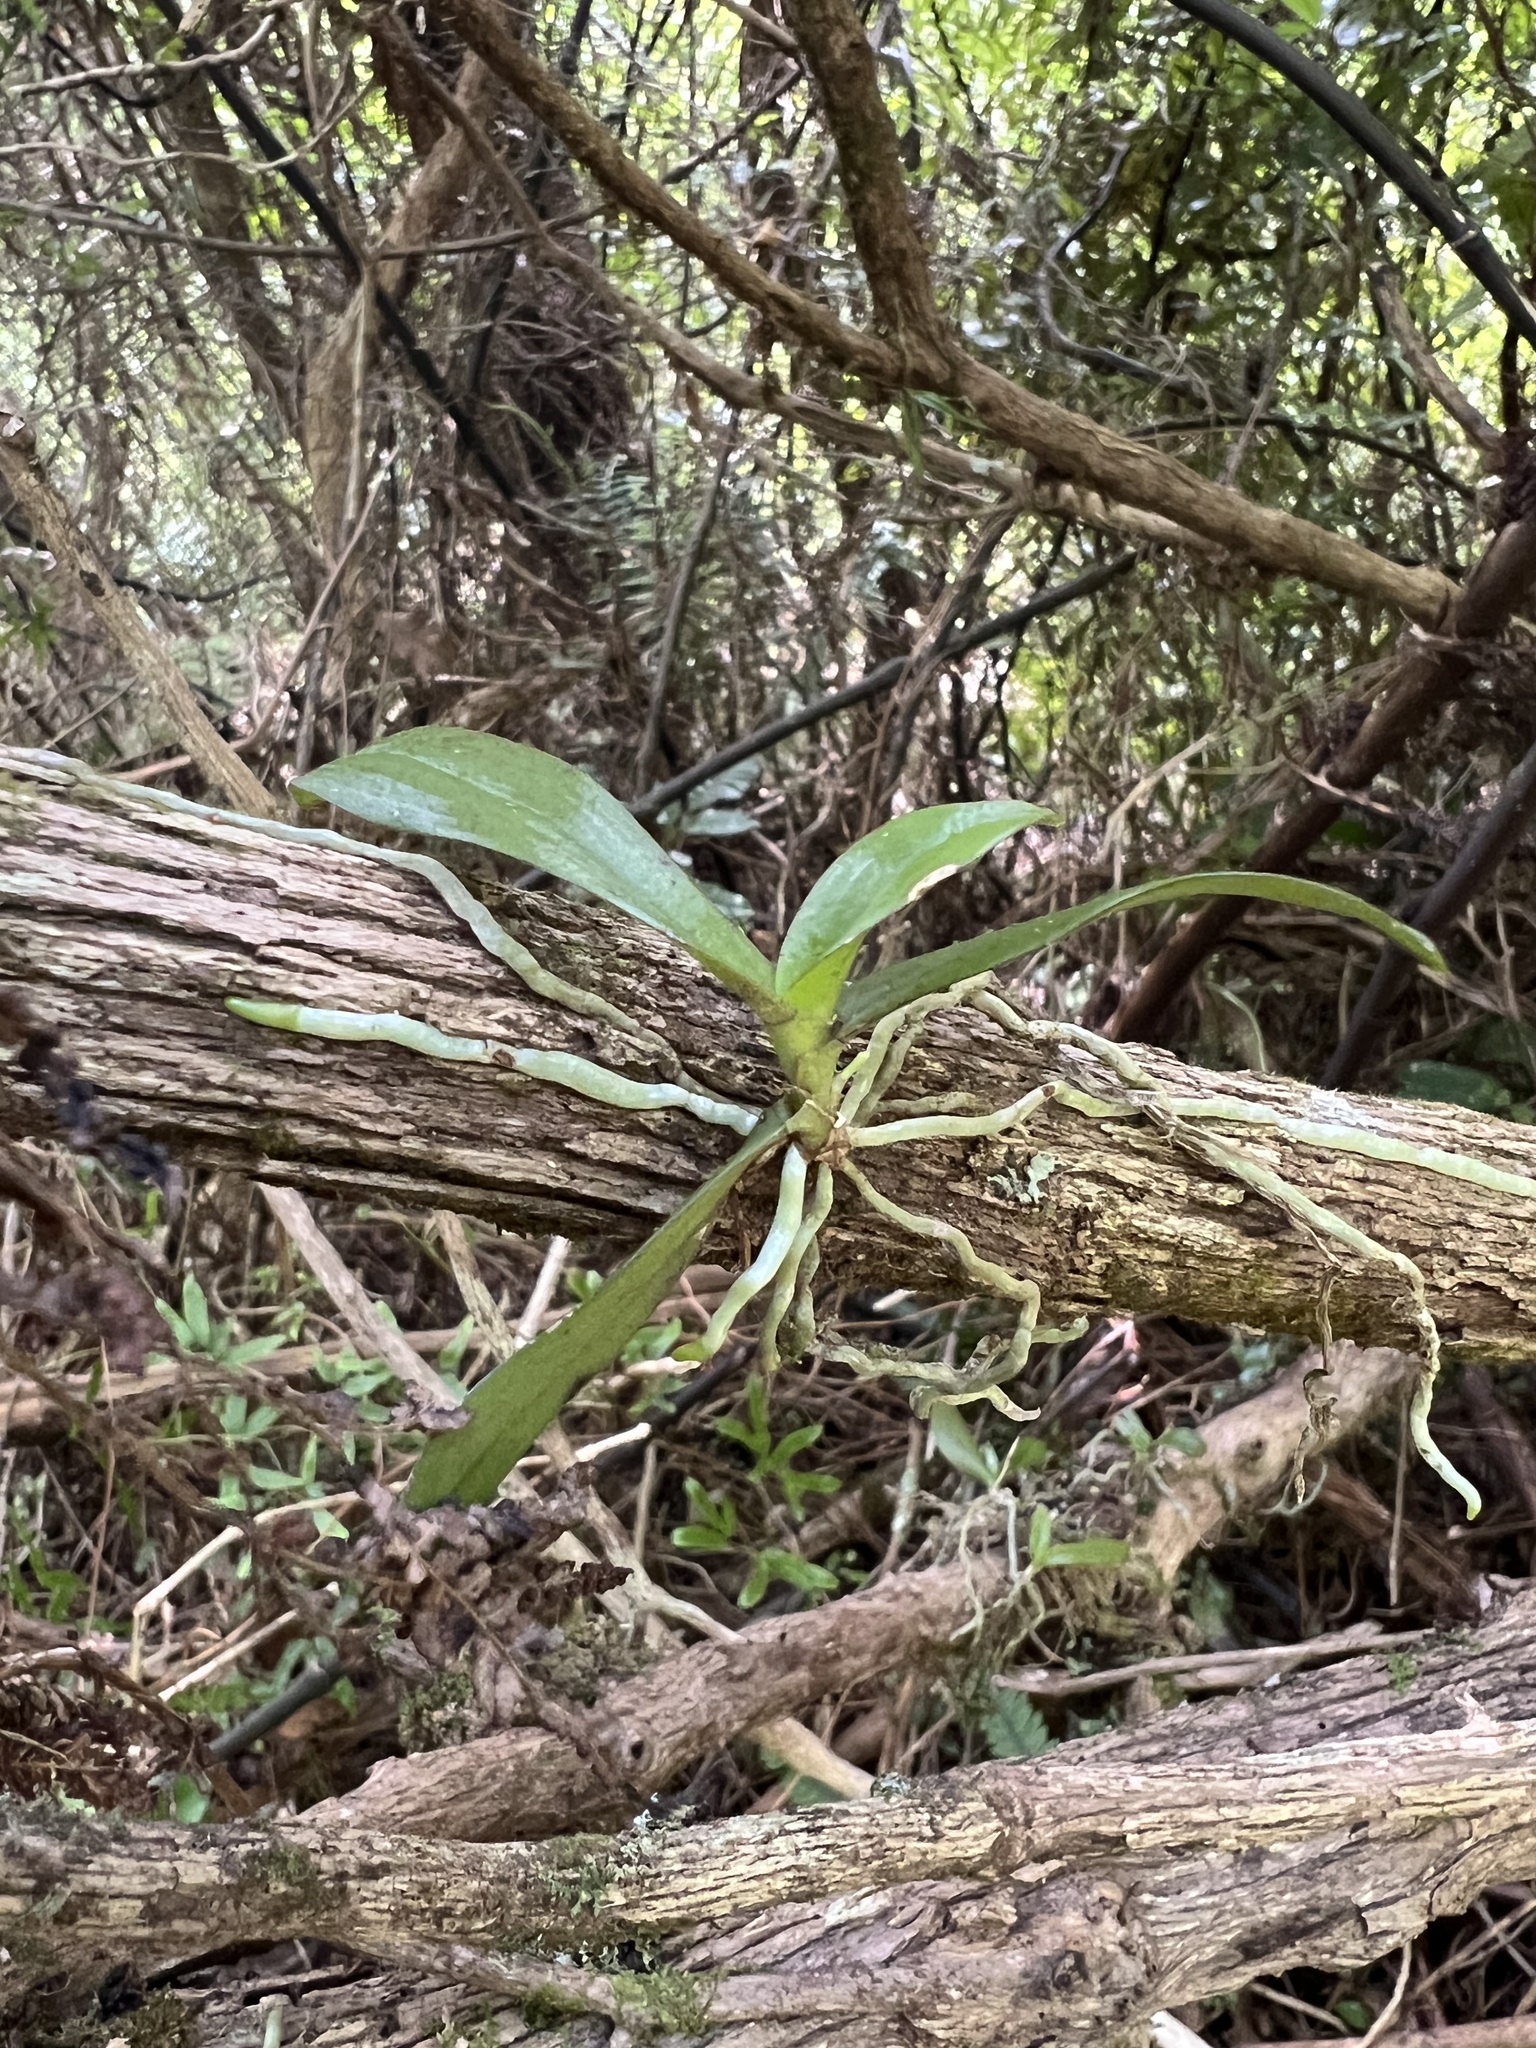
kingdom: Plantae
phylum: Tracheophyta
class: Liliopsida
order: Asparagales
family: Orchidaceae
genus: Drymoanthus
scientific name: Drymoanthus adversus
